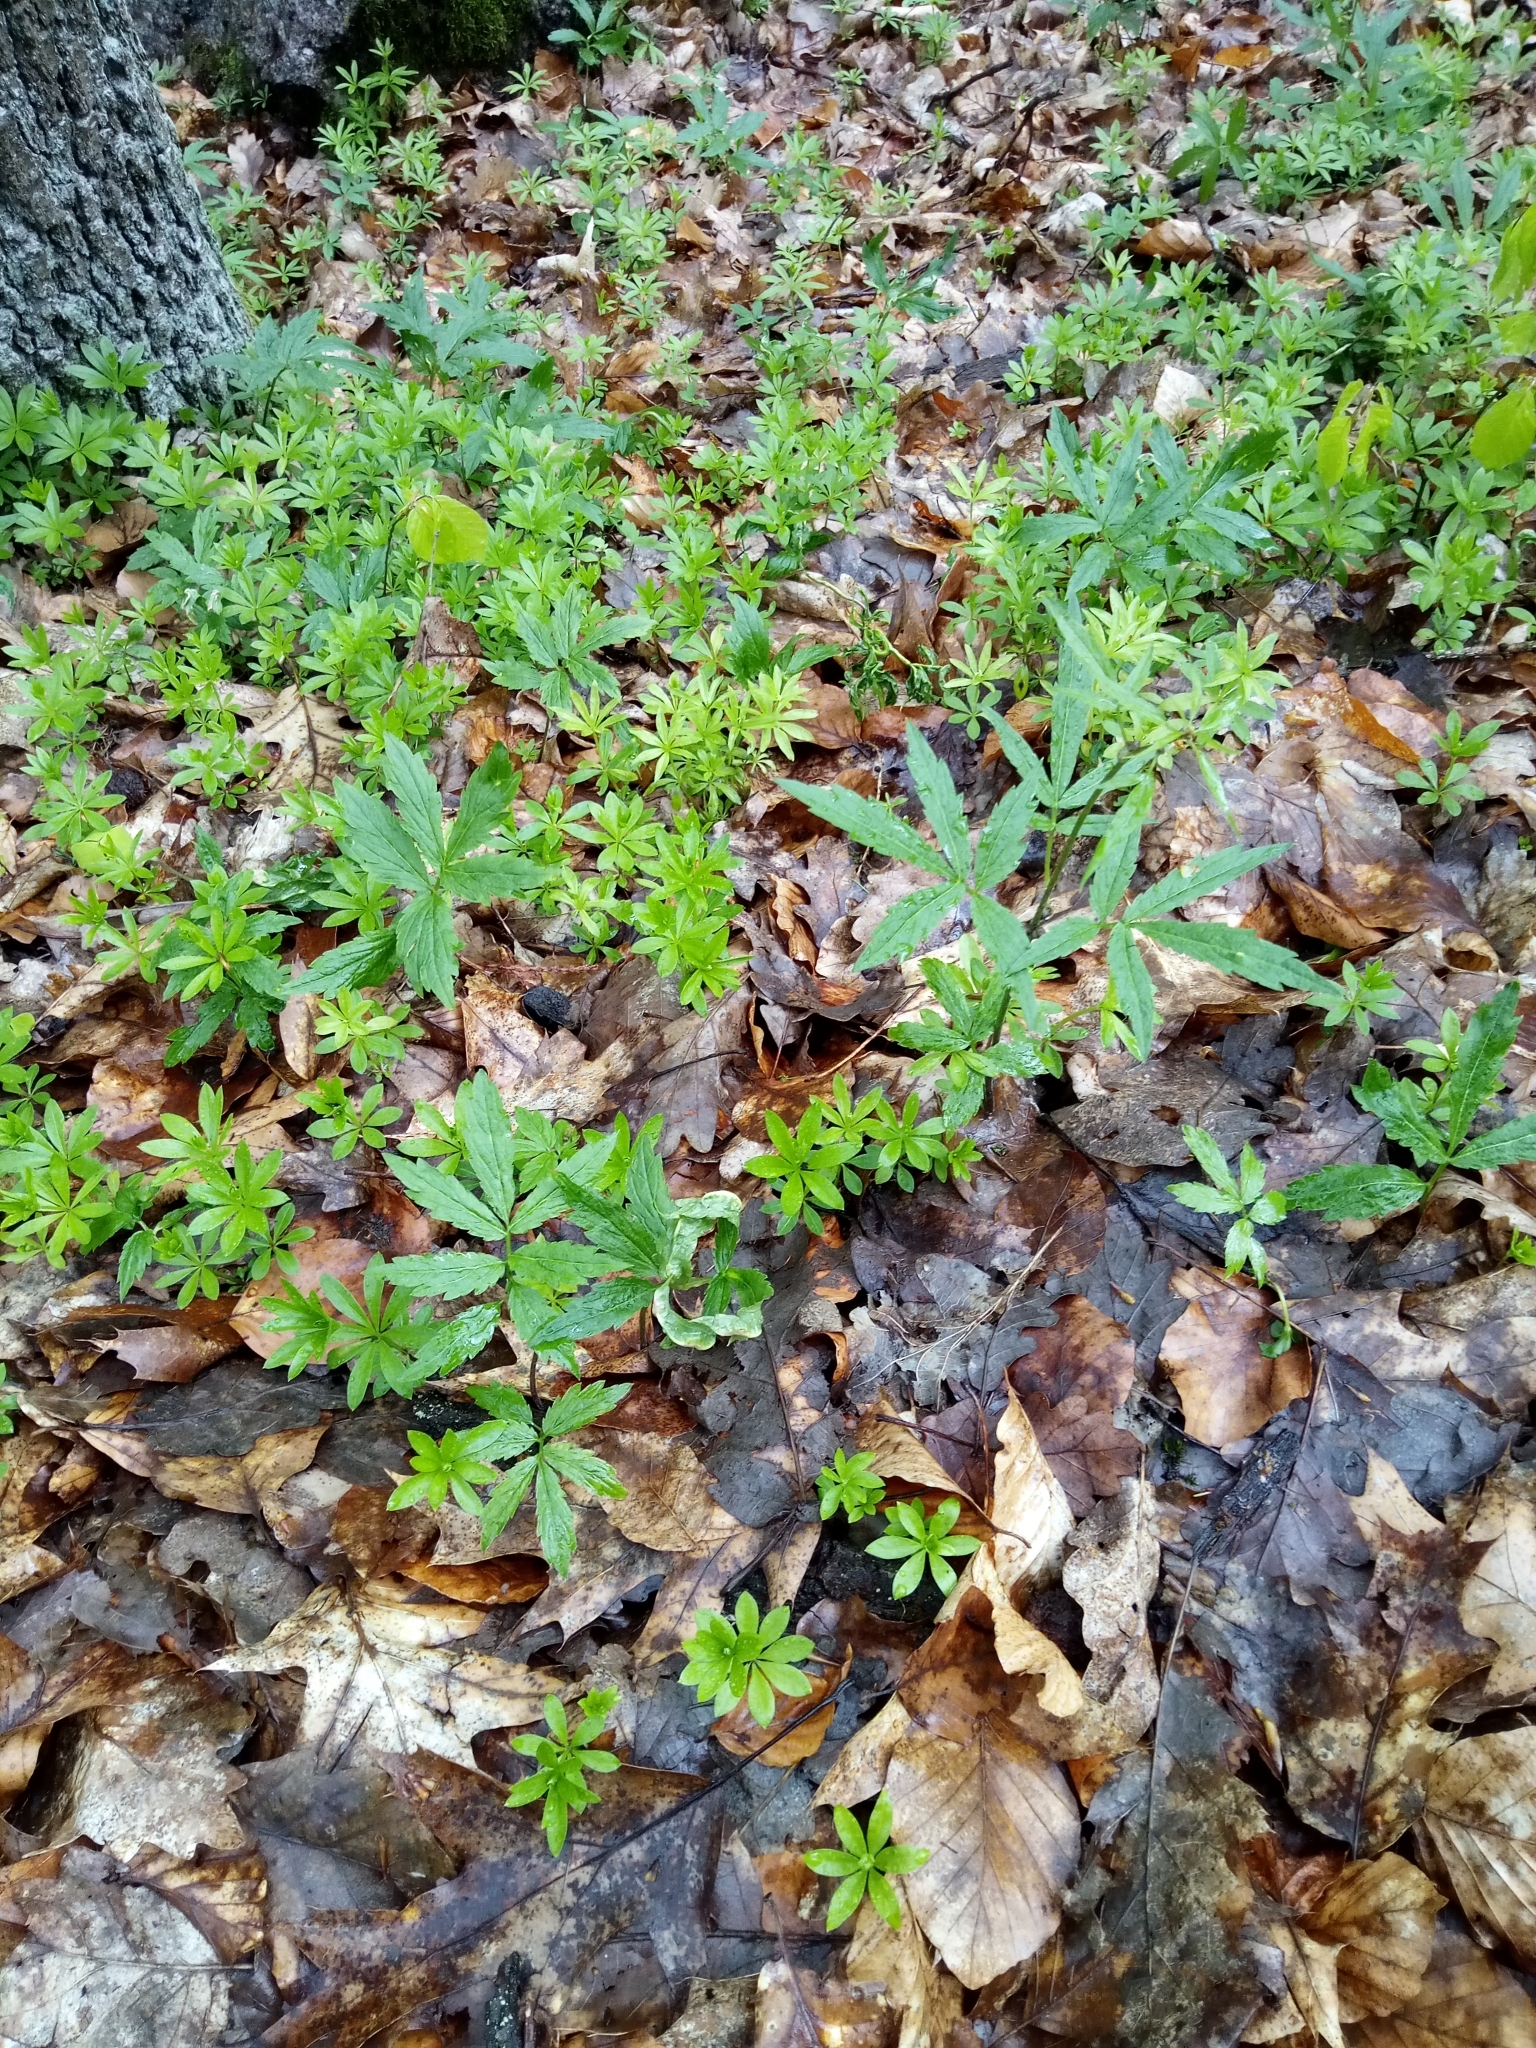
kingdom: Plantae
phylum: Tracheophyta
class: Magnoliopsida
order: Brassicales
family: Brassicaceae
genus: Cardamine
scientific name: Cardamine bulbifera
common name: Coralroot bittercress
